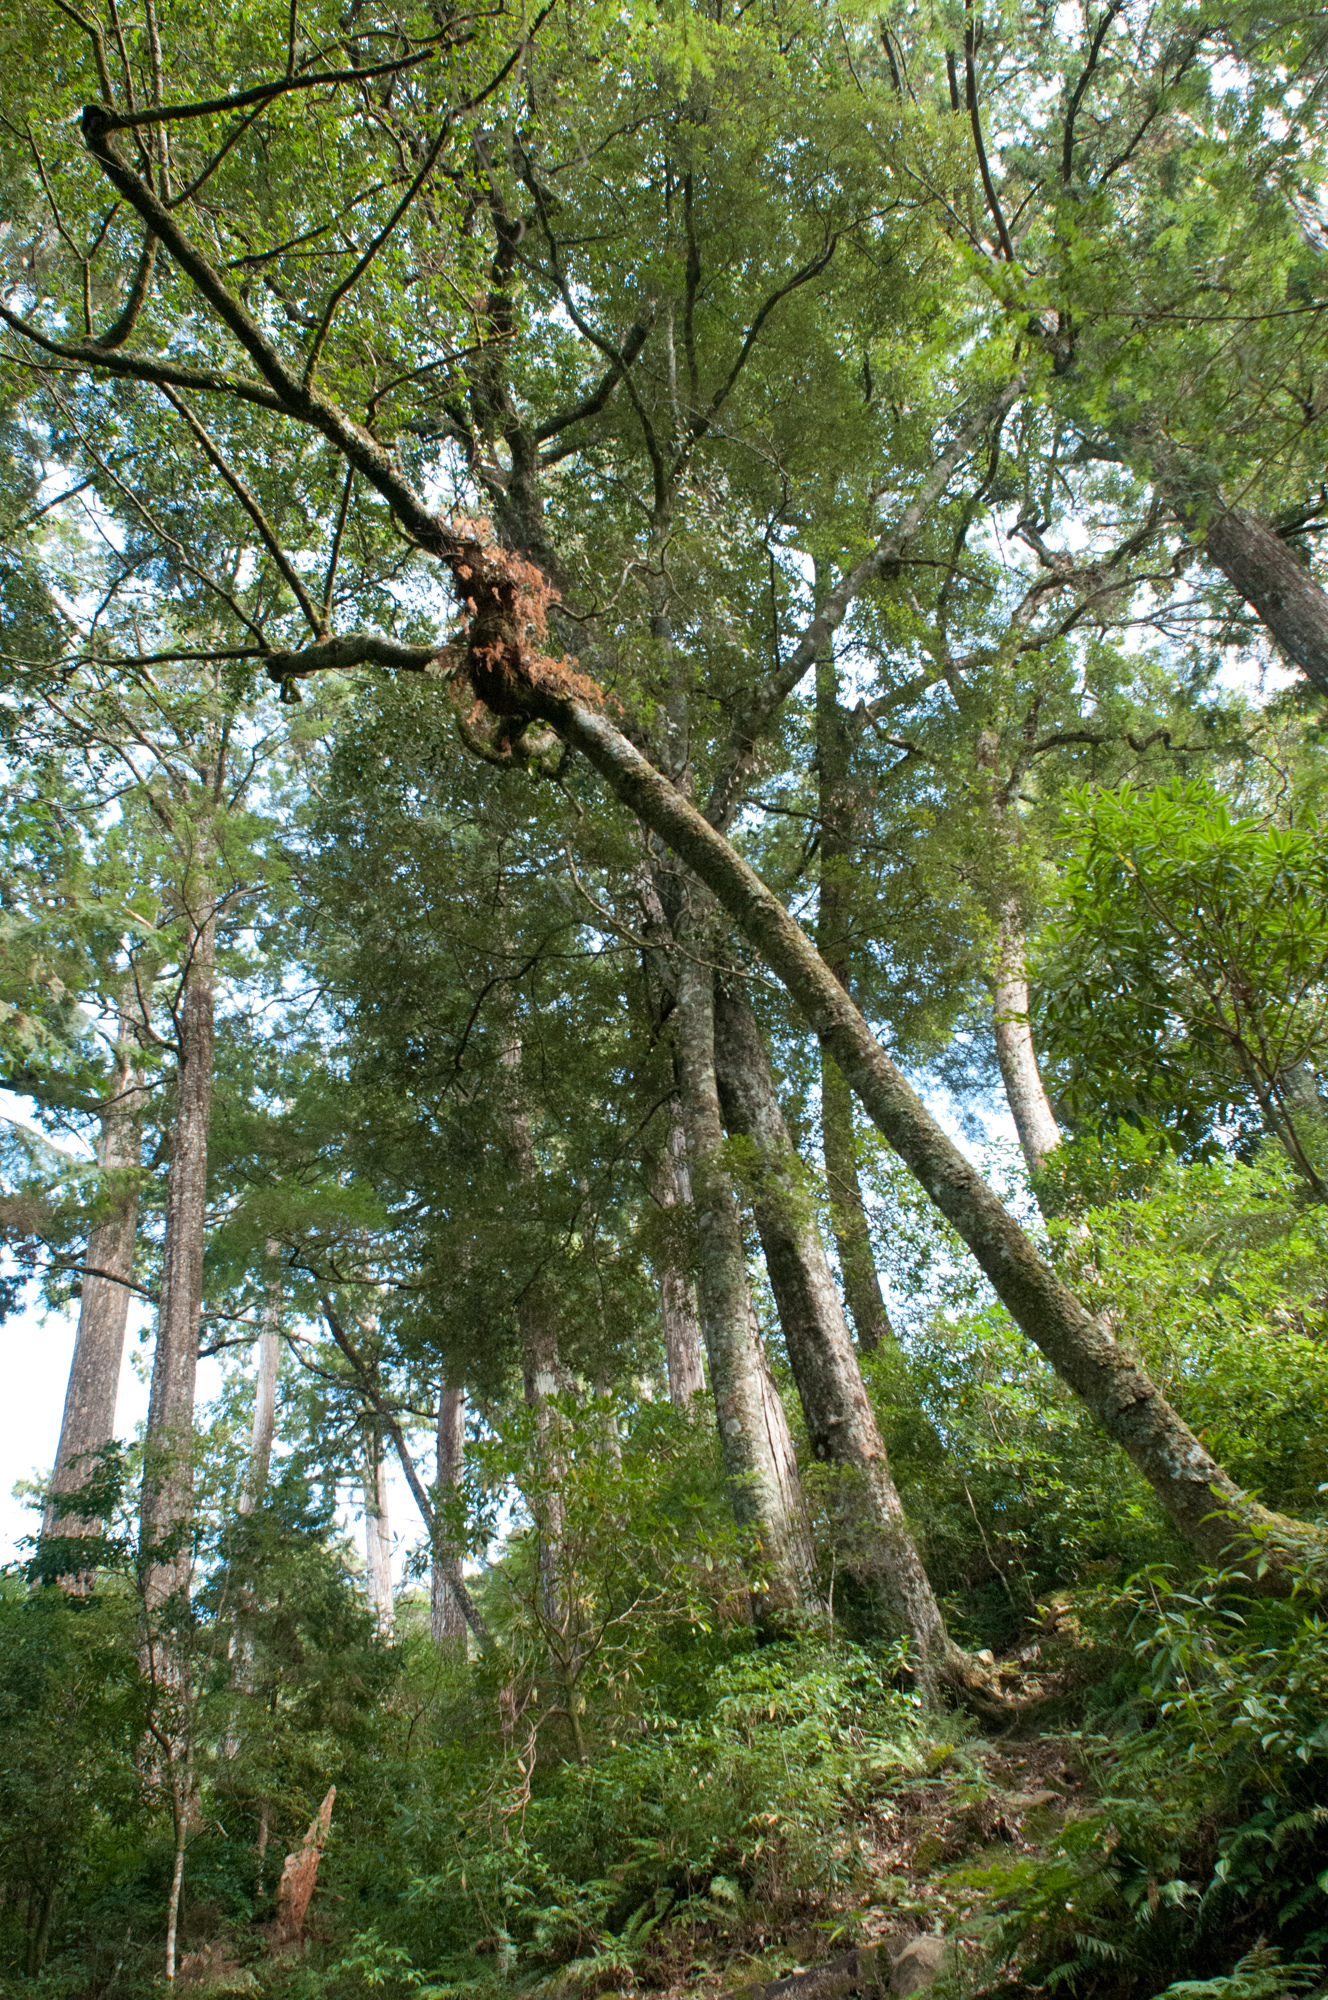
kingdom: Plantae
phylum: Tracheophyta
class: Polypodiopsida
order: Polypodiales
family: Davalliaceae
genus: Davallia
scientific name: Davallia perdurans
